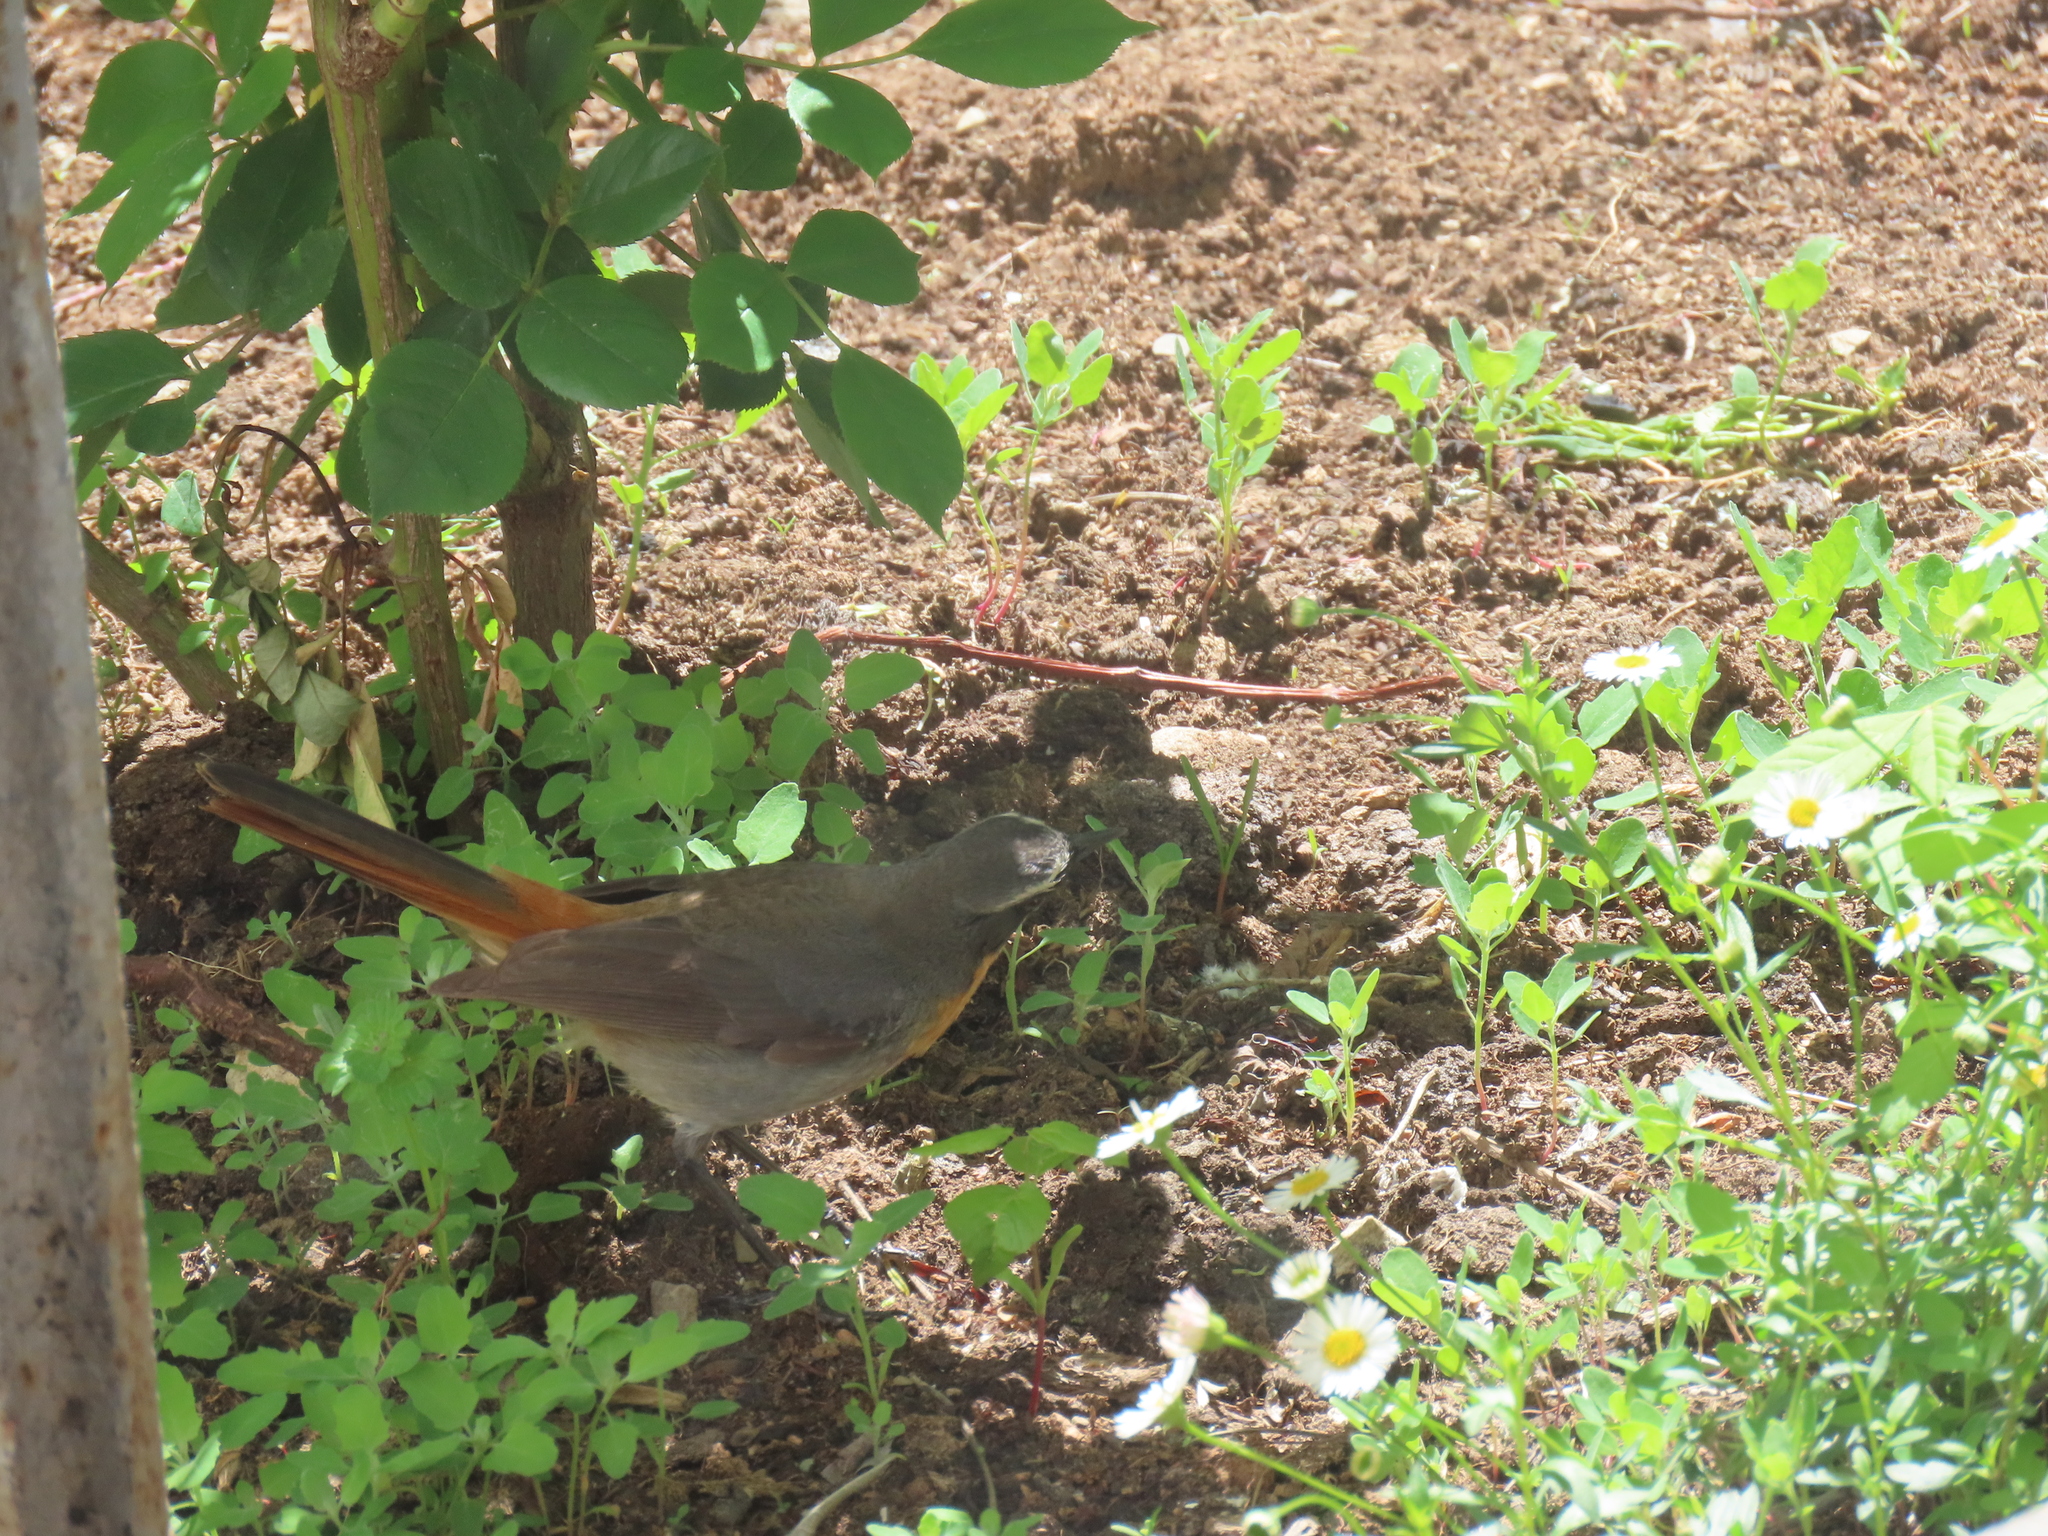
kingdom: Animalia
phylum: Chordata
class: Aves
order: Passeriformes
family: Muscicapidae
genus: Cossypha
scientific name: Cossypha caffra
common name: Cape robin-chat
